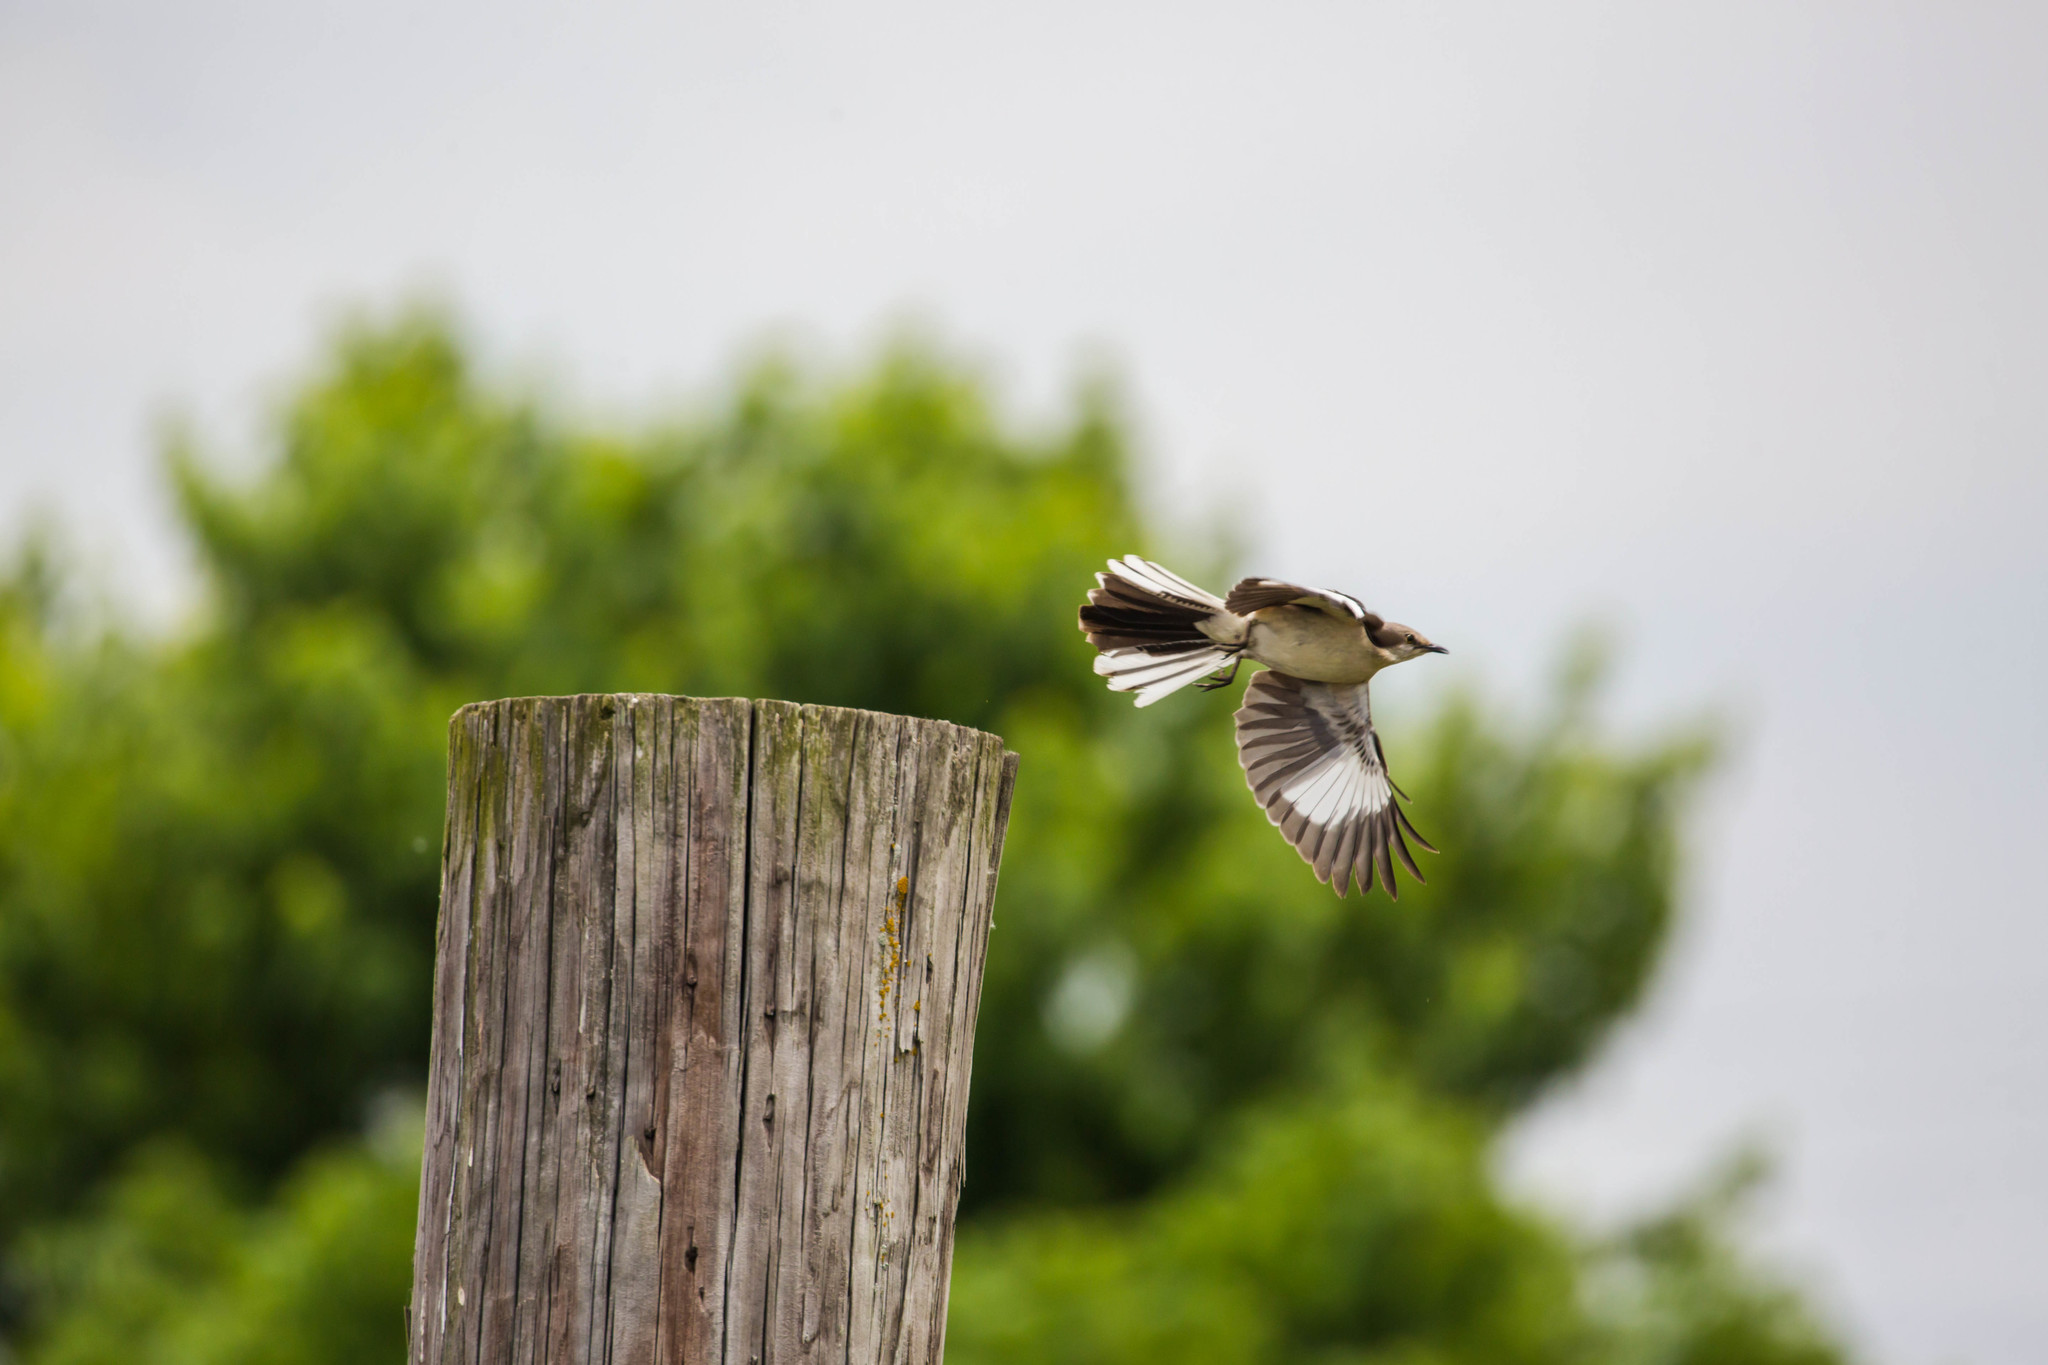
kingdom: Animalia
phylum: Chordata
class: Aves
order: Passeriformes
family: Mimidae
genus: Mimus
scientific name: Mimus polyglottos
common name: Northern mockingbird
